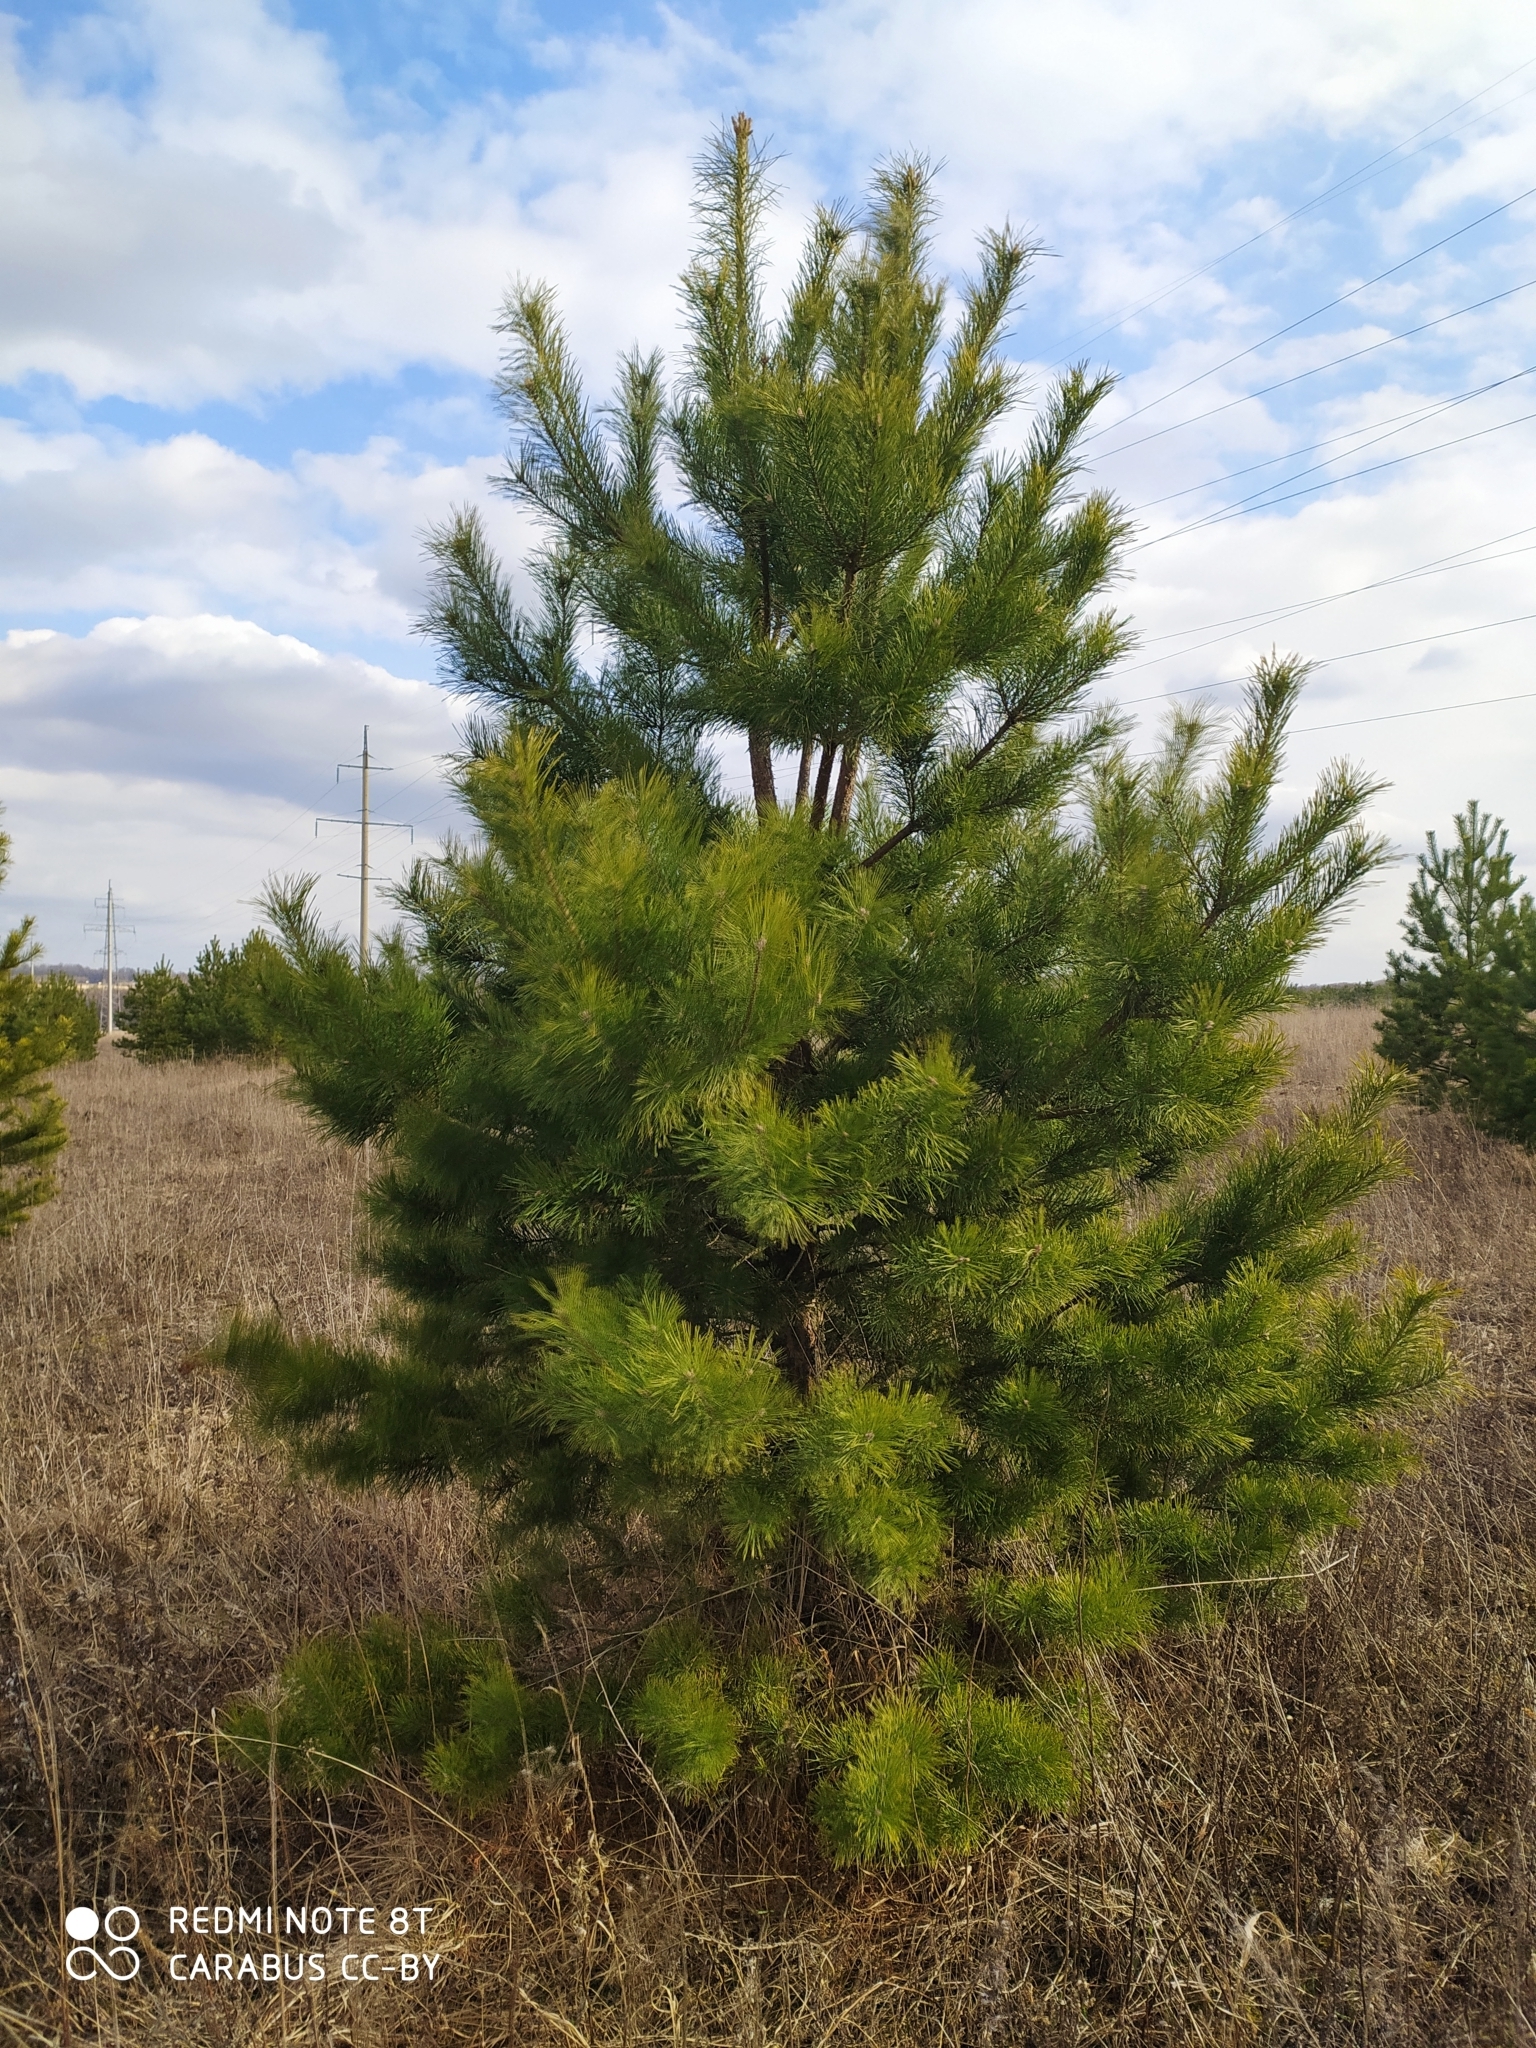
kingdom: Plantae
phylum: Tracheophyta
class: Pinopsida
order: Pinales
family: Pinaceae
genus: Pinus
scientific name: Pinus sylvestris
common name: Scots pine
